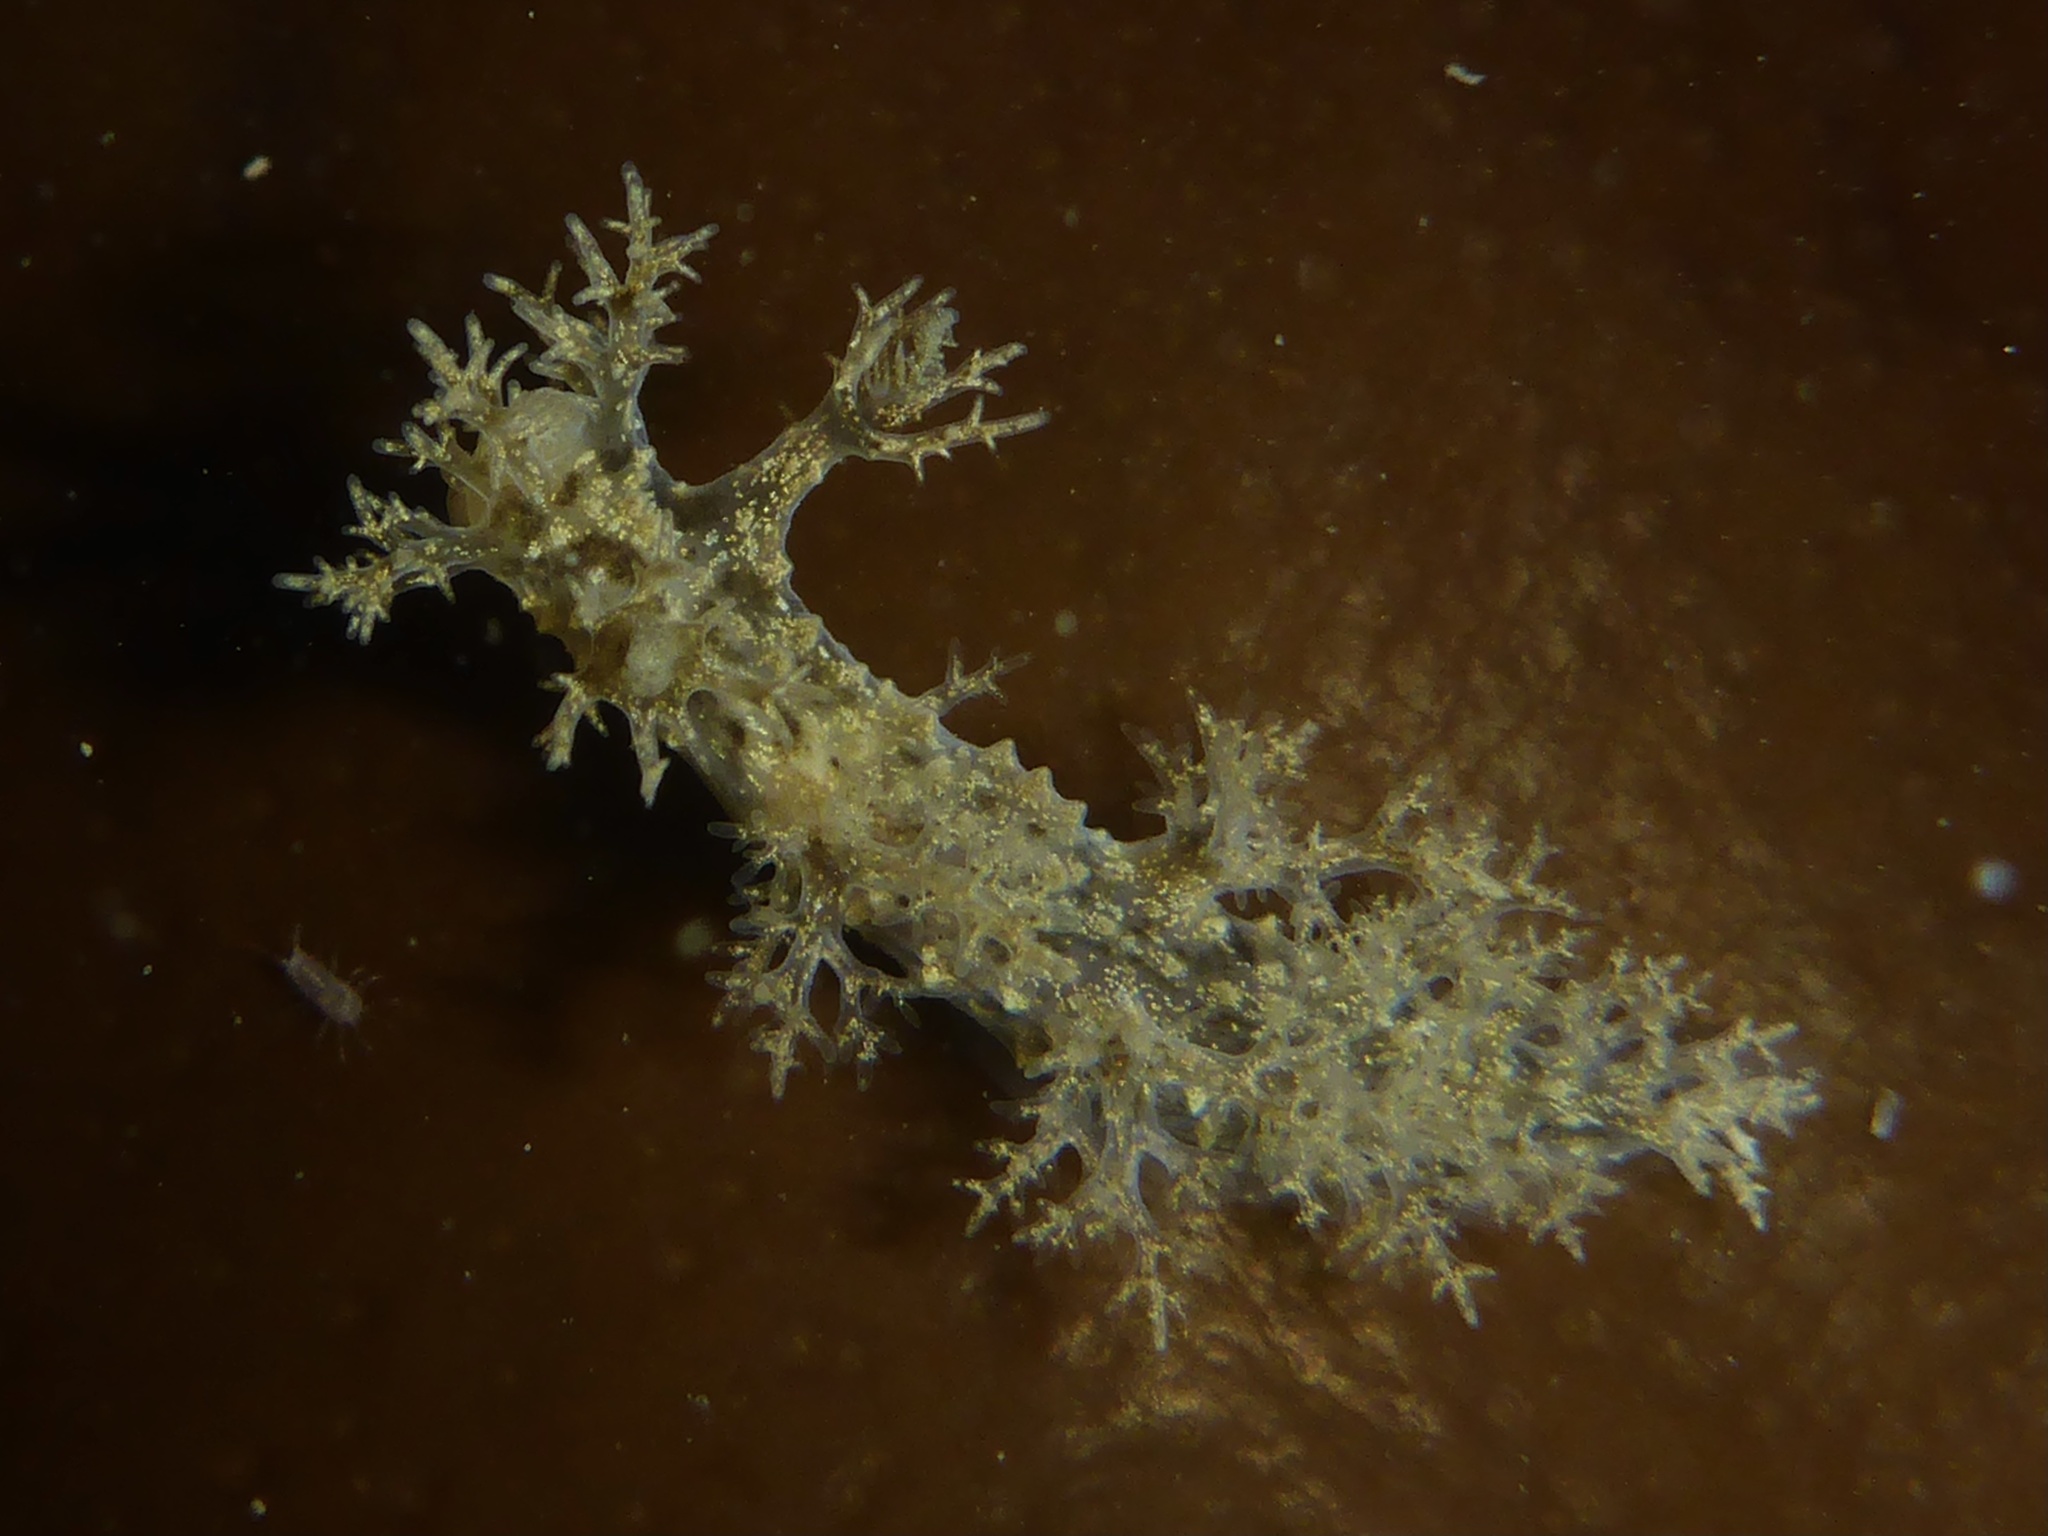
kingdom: Animalia
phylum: Mollusca
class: Gastropoda
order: Nudibranchia
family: Dendronotidae
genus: Dendronotus
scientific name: Dendronotus venustus
